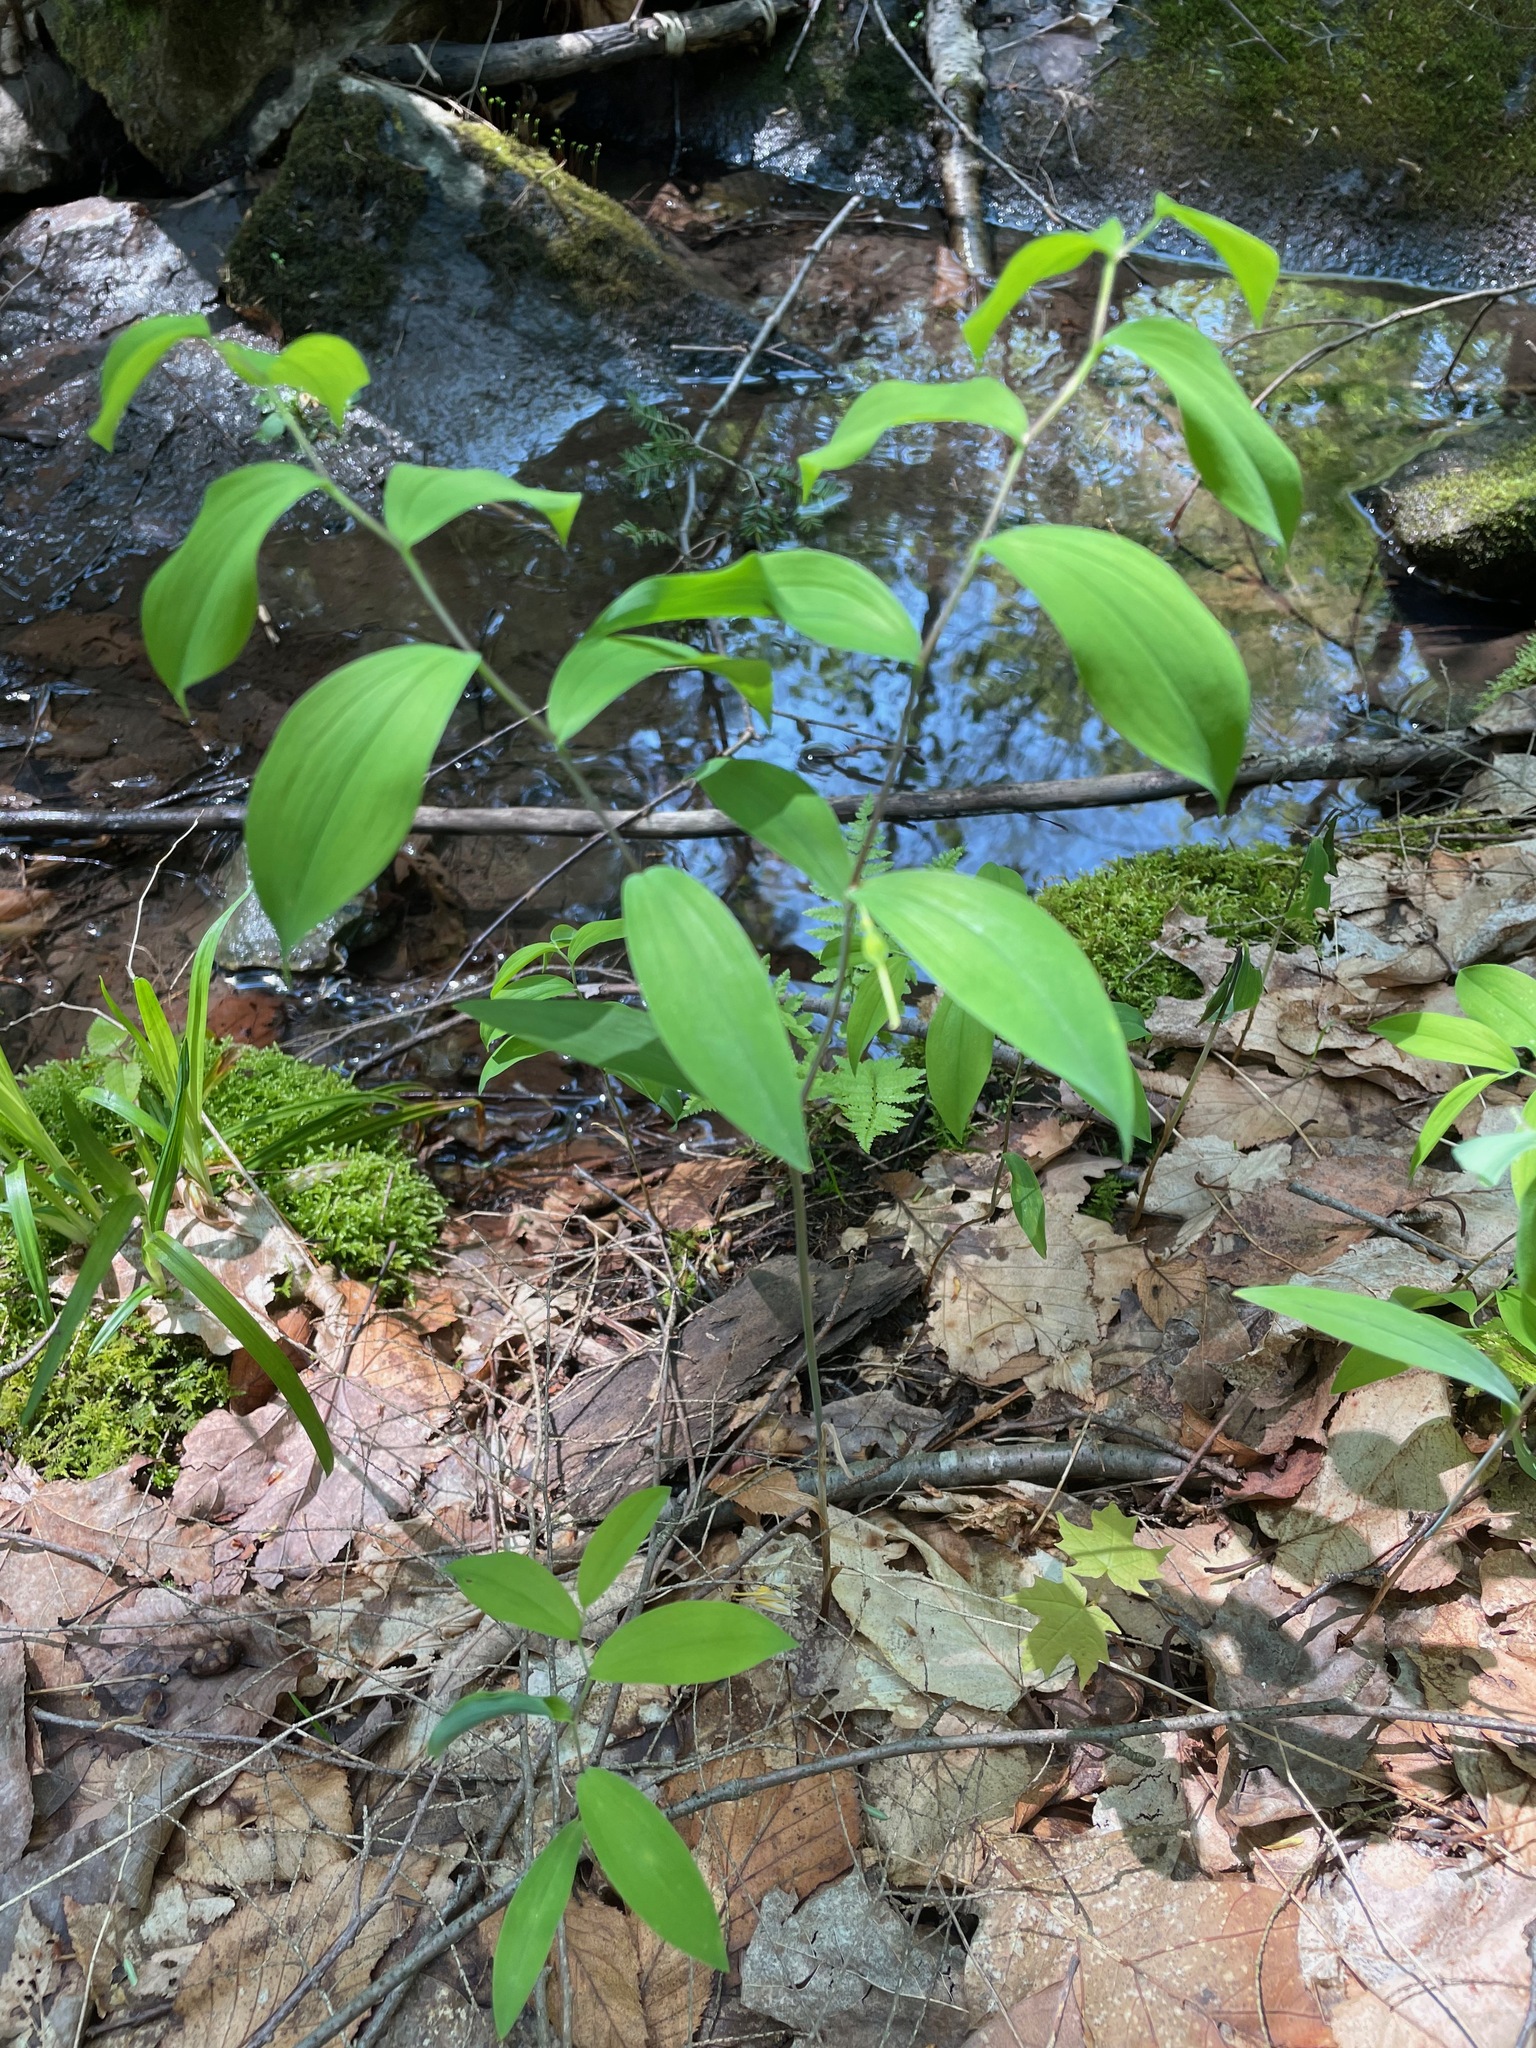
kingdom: Plantae
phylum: Tracheophyta
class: Liliopsida
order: Liliales
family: Colchicaceae
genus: Uvularia
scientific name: Uvularia sessilifolia
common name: Straw-lily
